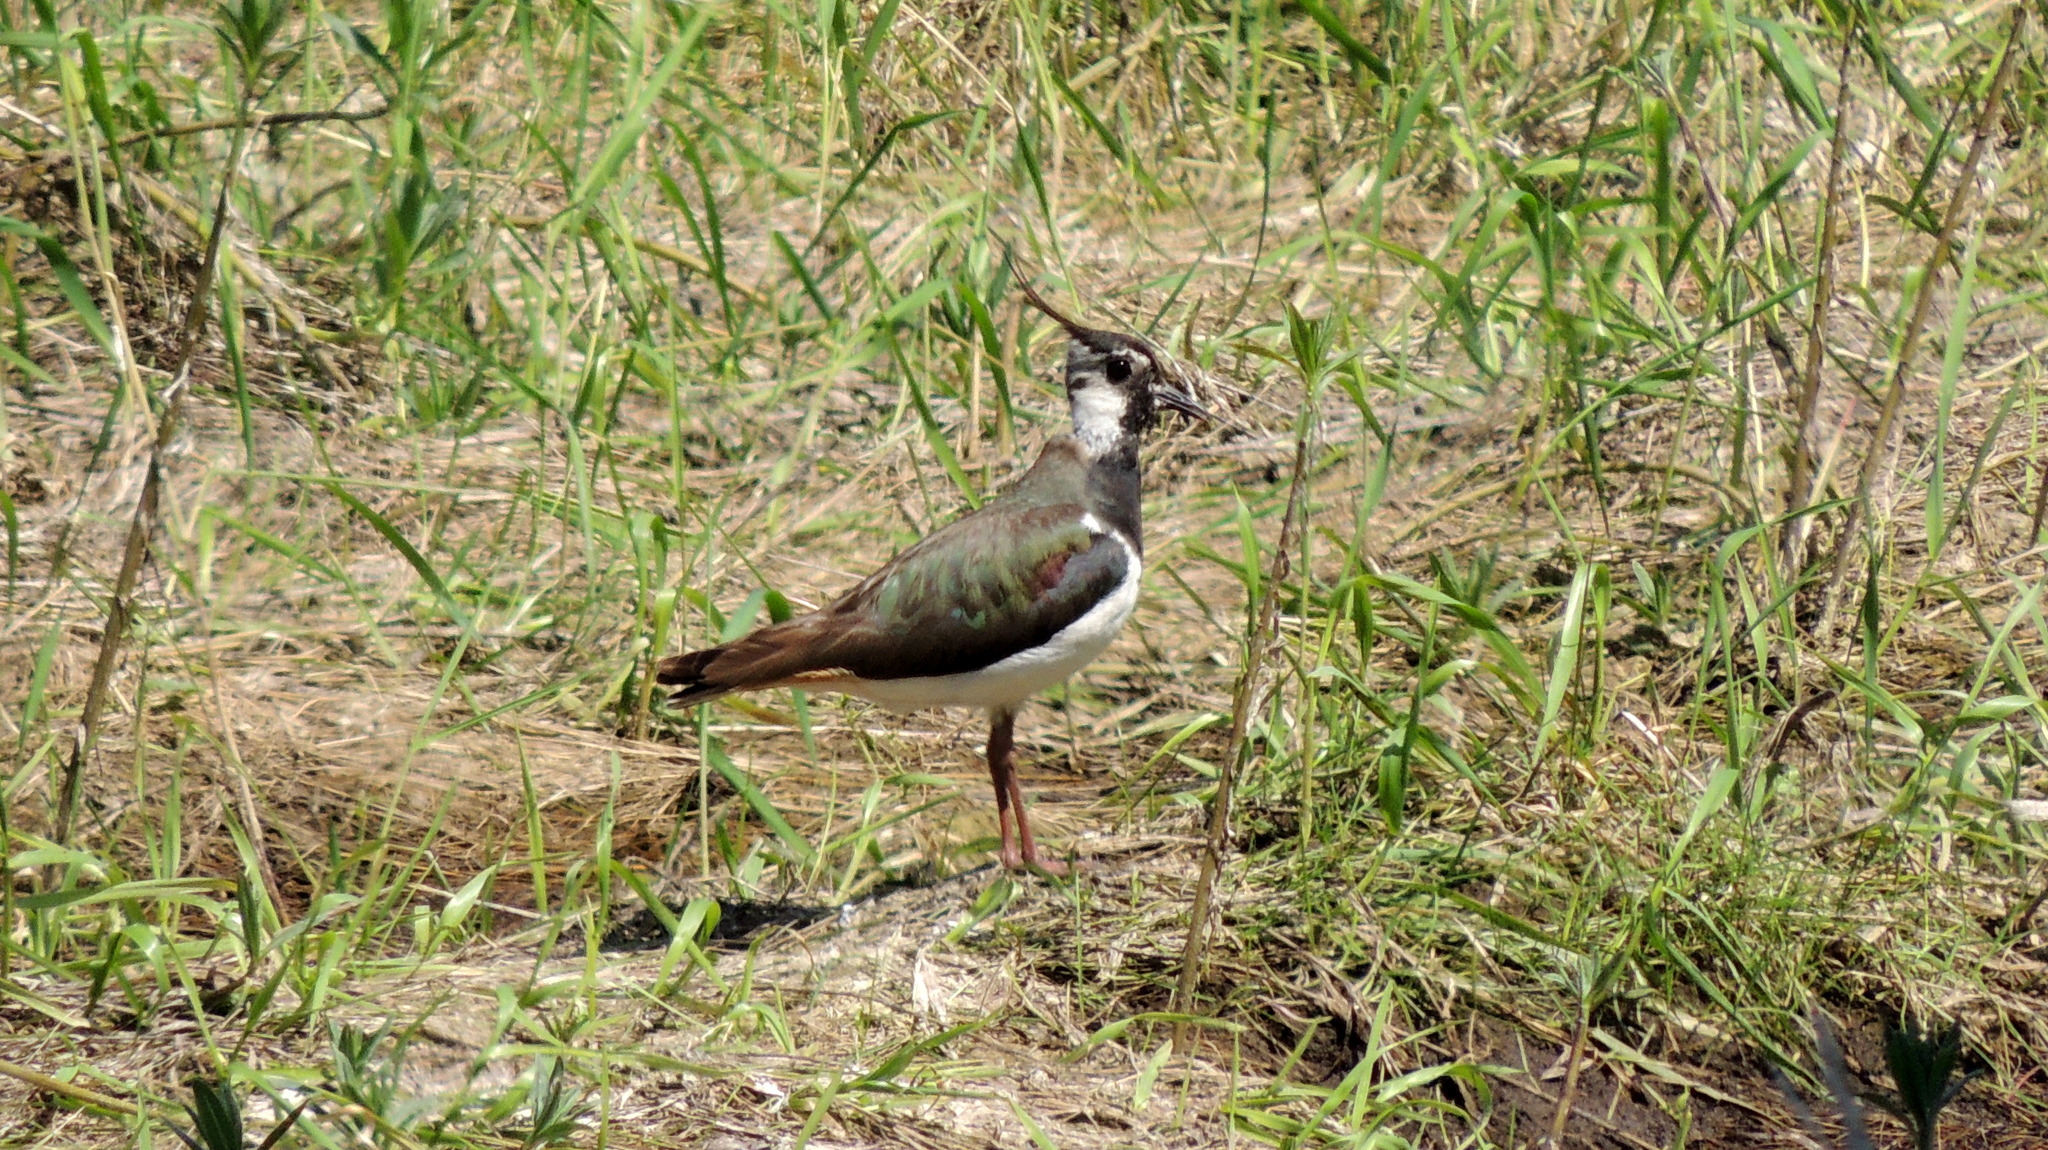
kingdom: Animalia
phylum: Chordata
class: Aves
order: Charadriiformes
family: Charadriidae
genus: Vanellus
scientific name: Vanellus vanellus
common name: Northern lapwing
